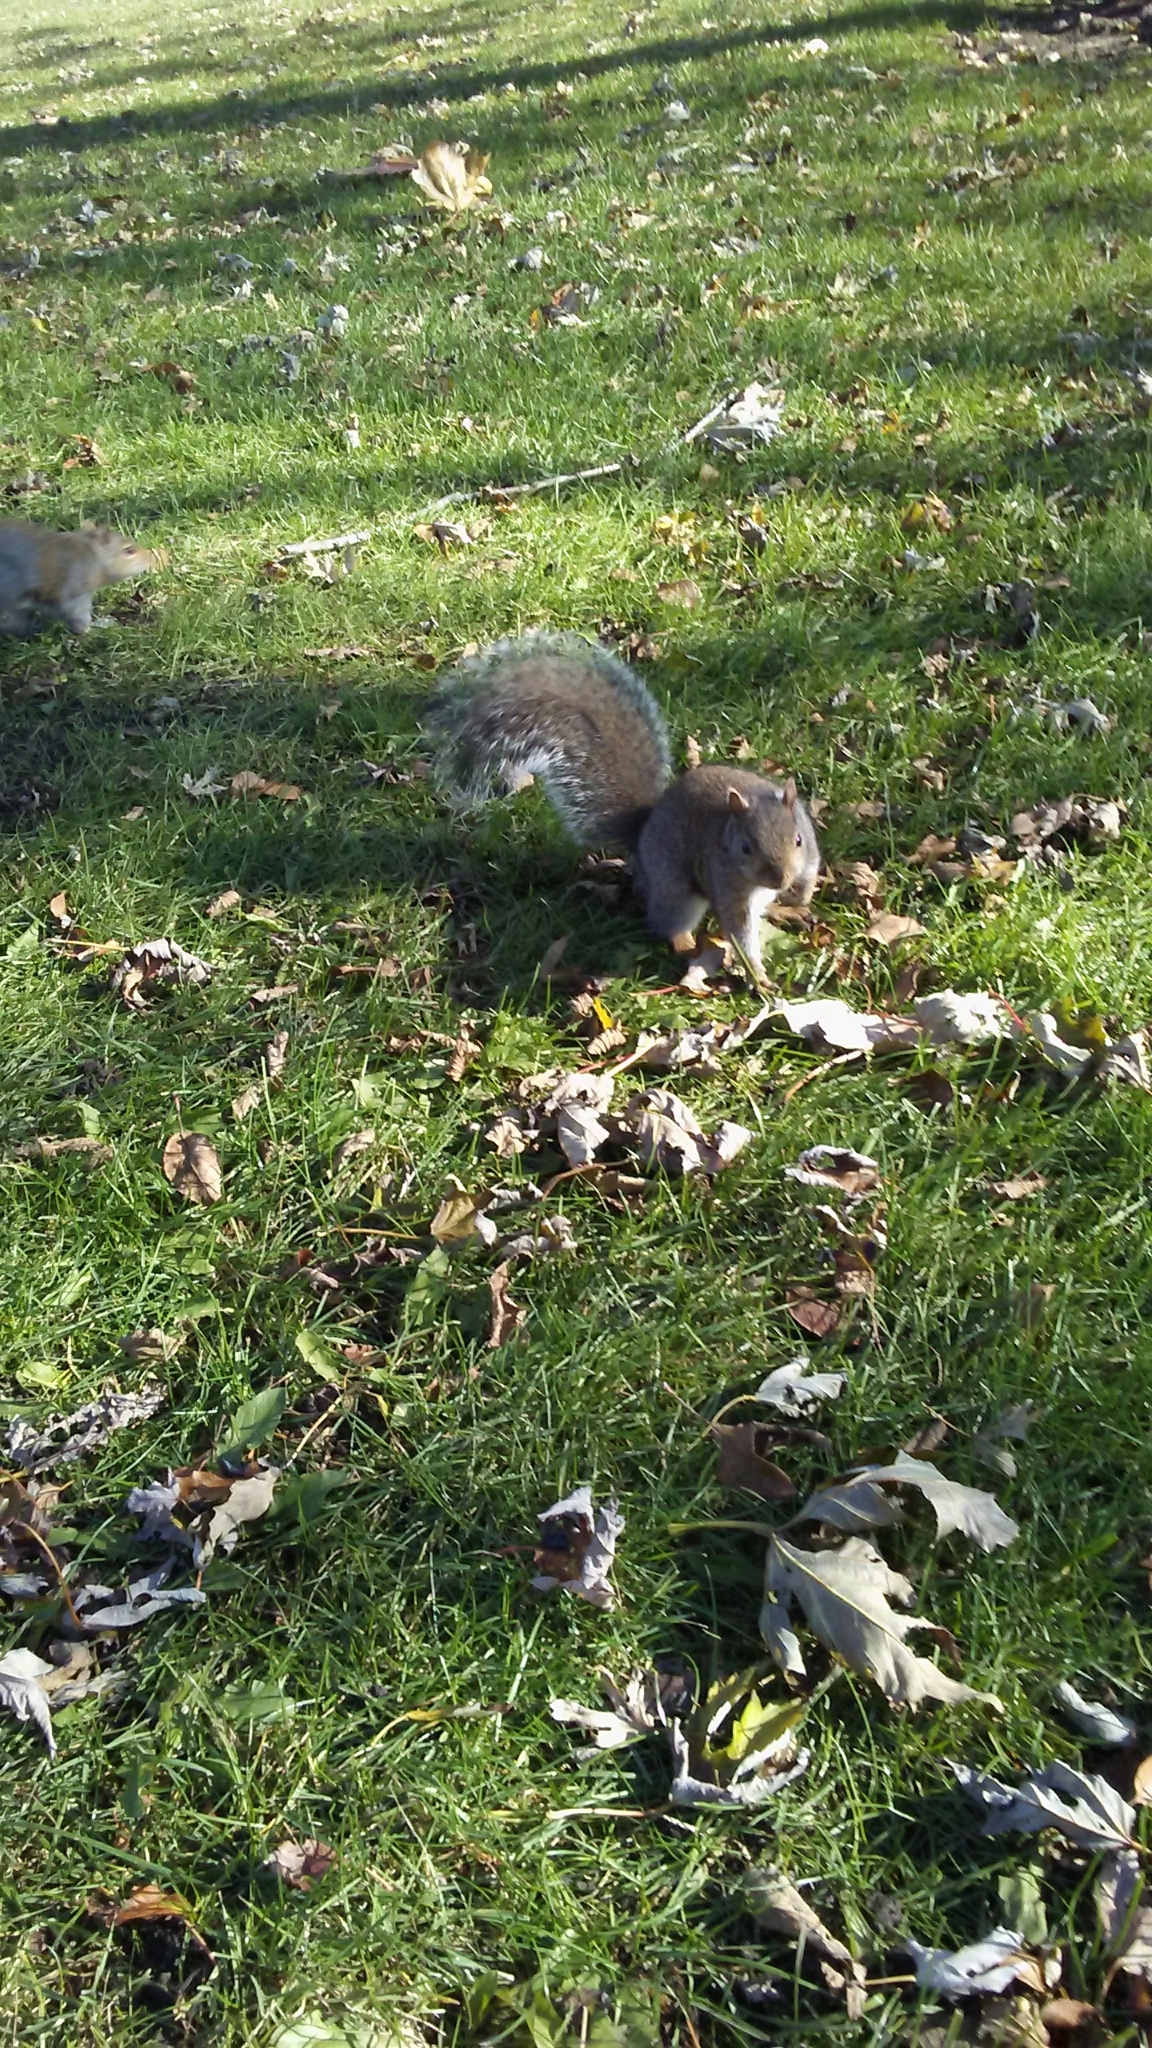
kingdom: Animalia
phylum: Chordata
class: Mammalia
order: Rodentia
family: Sciuridae
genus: Sciurus
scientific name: Sciurus carolinensis
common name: Eastern gray squirrel
